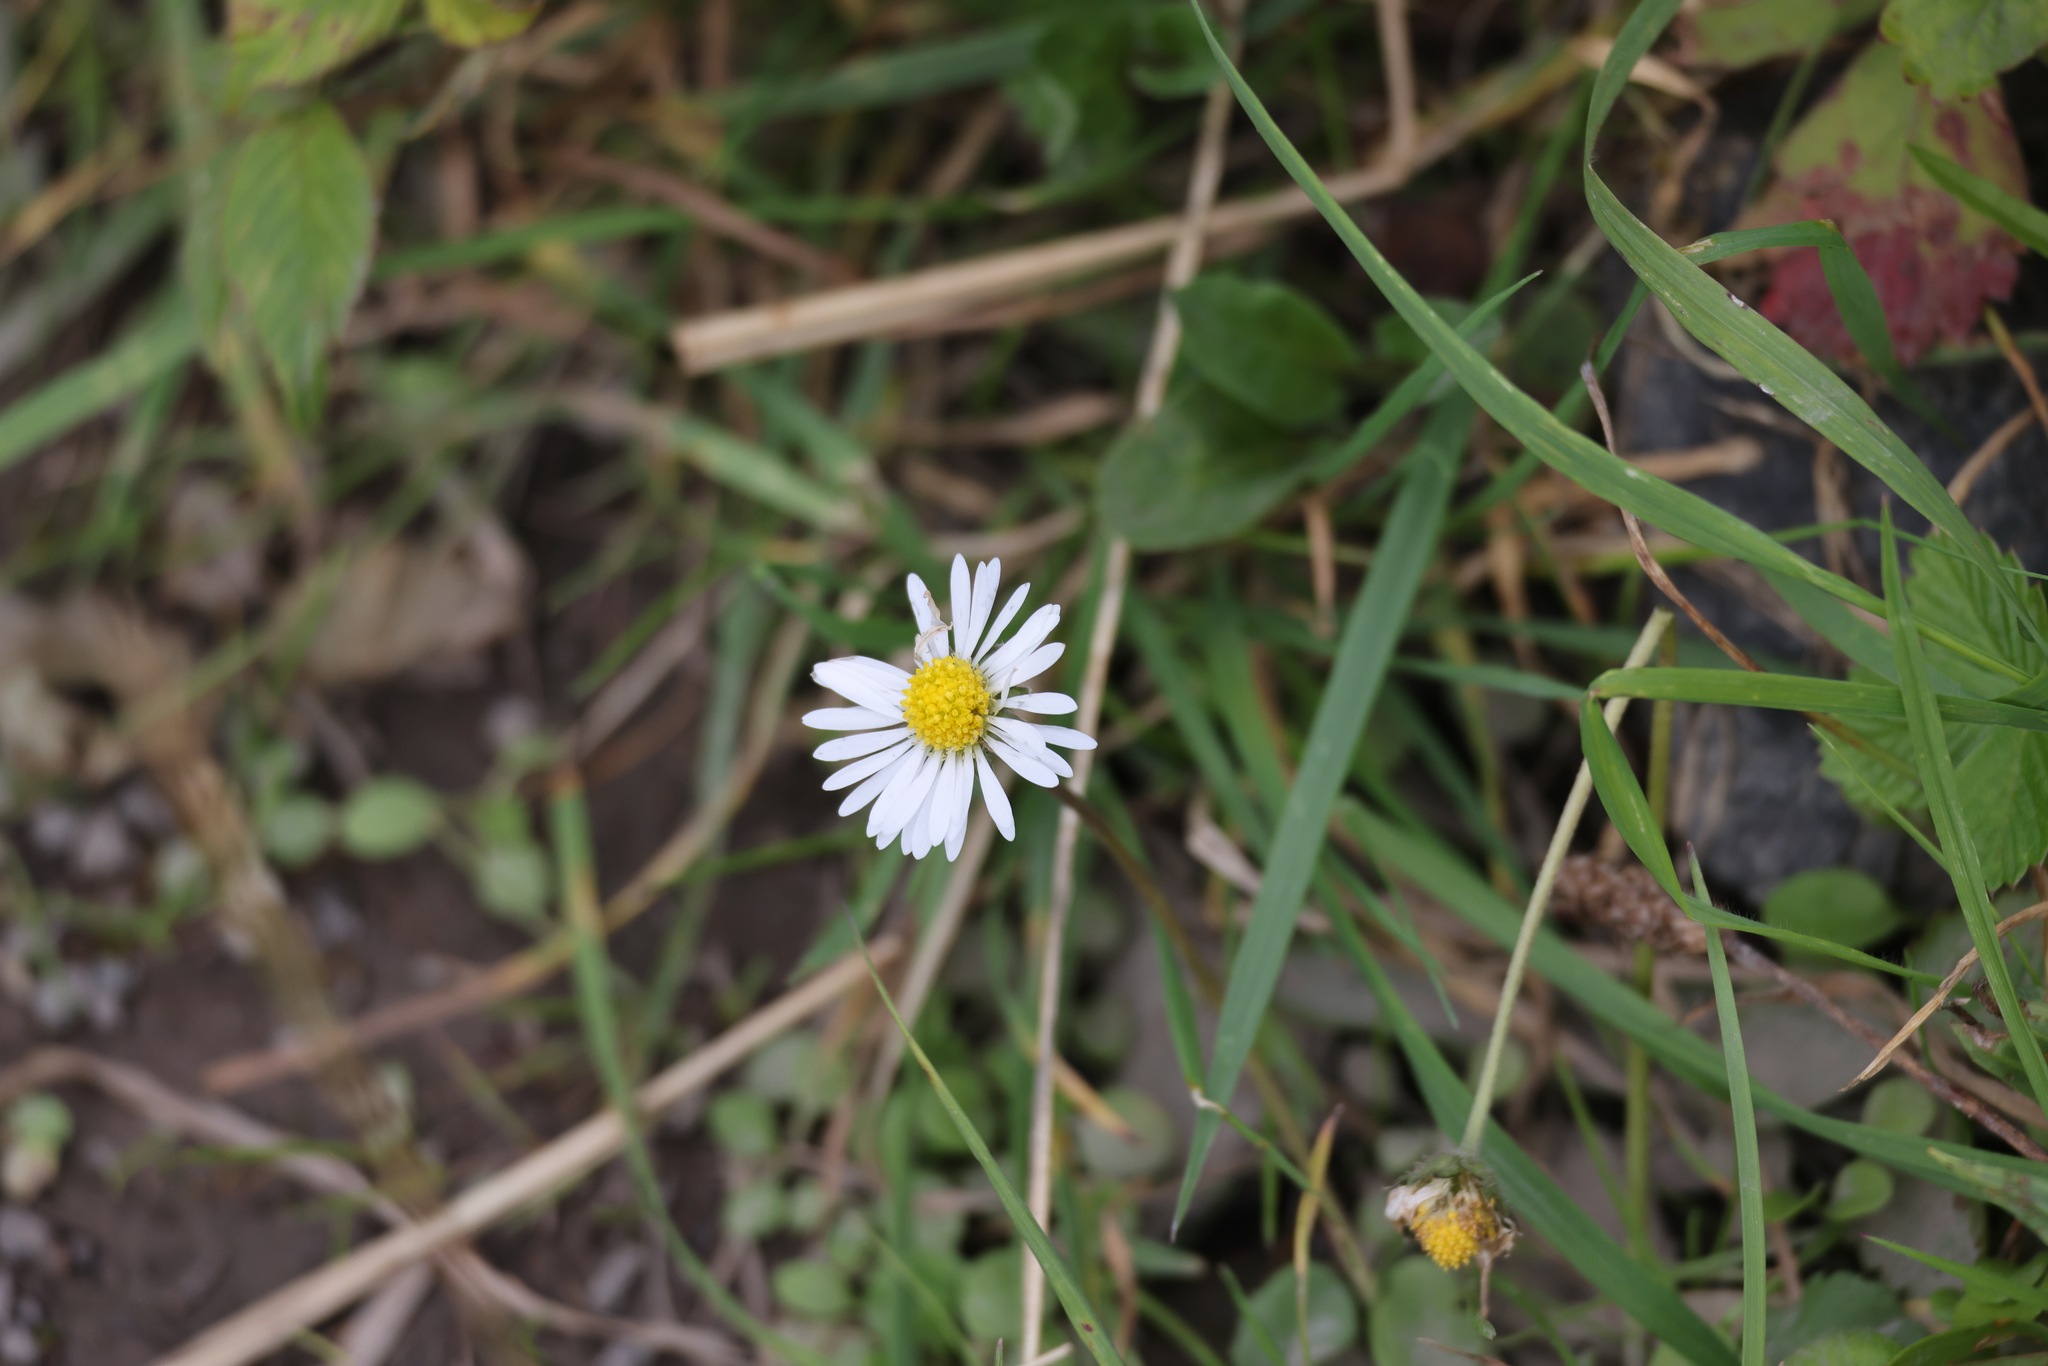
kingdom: Plantae
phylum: Tracheophyta
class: Magnoliopsida
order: Asterales
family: Asteraceae
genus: Bellis
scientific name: Bellis perennis
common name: Lawndaisy
